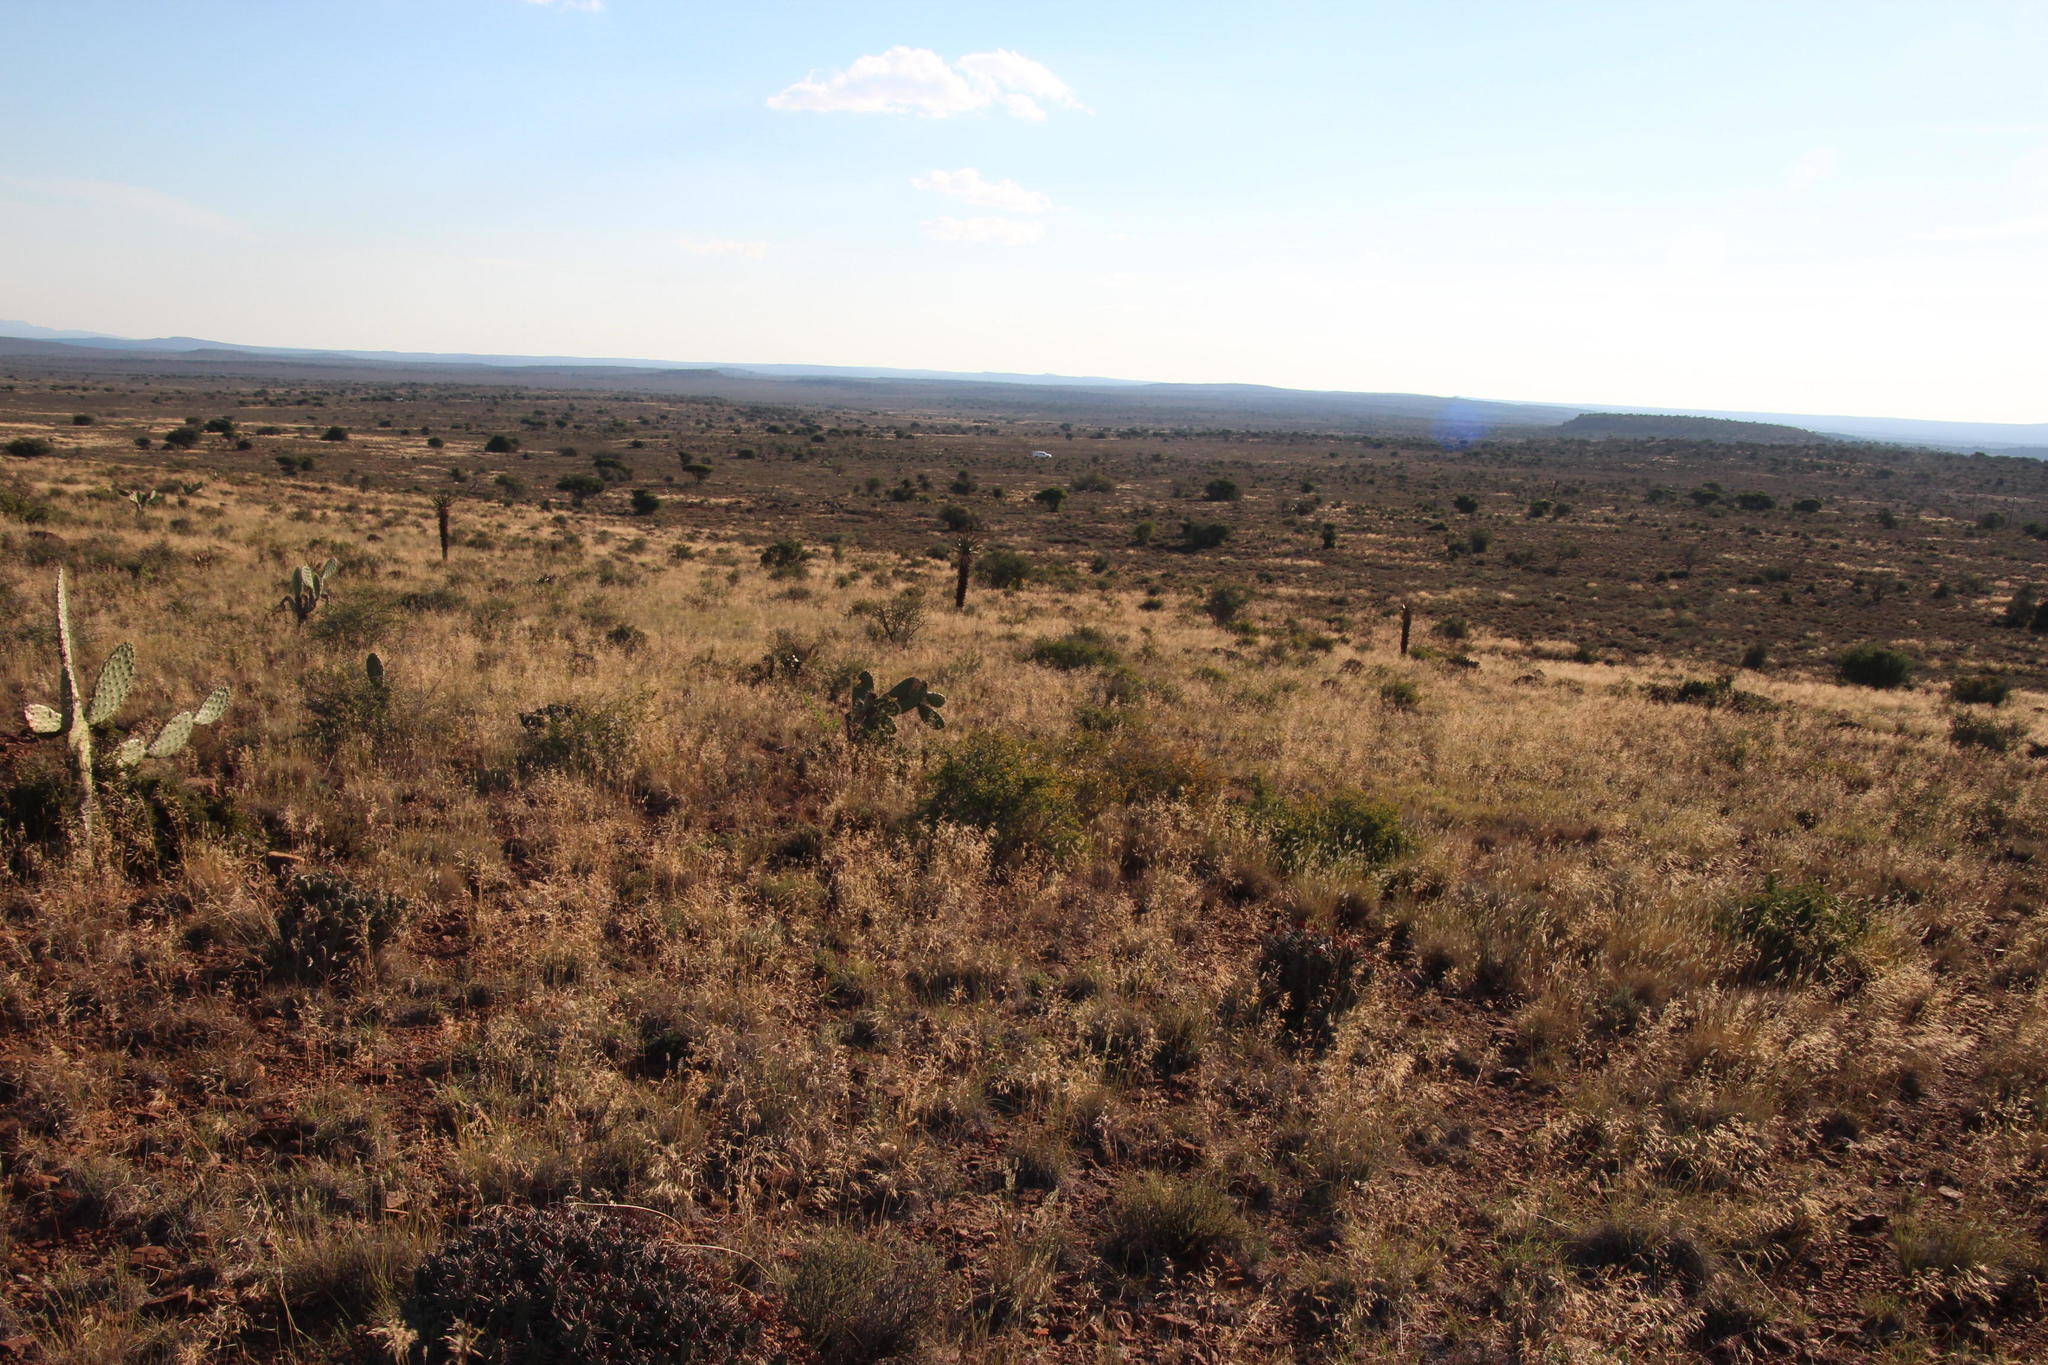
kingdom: Plantae
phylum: Tracheophyta
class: Liliopsida
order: Poales
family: Poaceae
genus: Aristida
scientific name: Aristida diffusa
